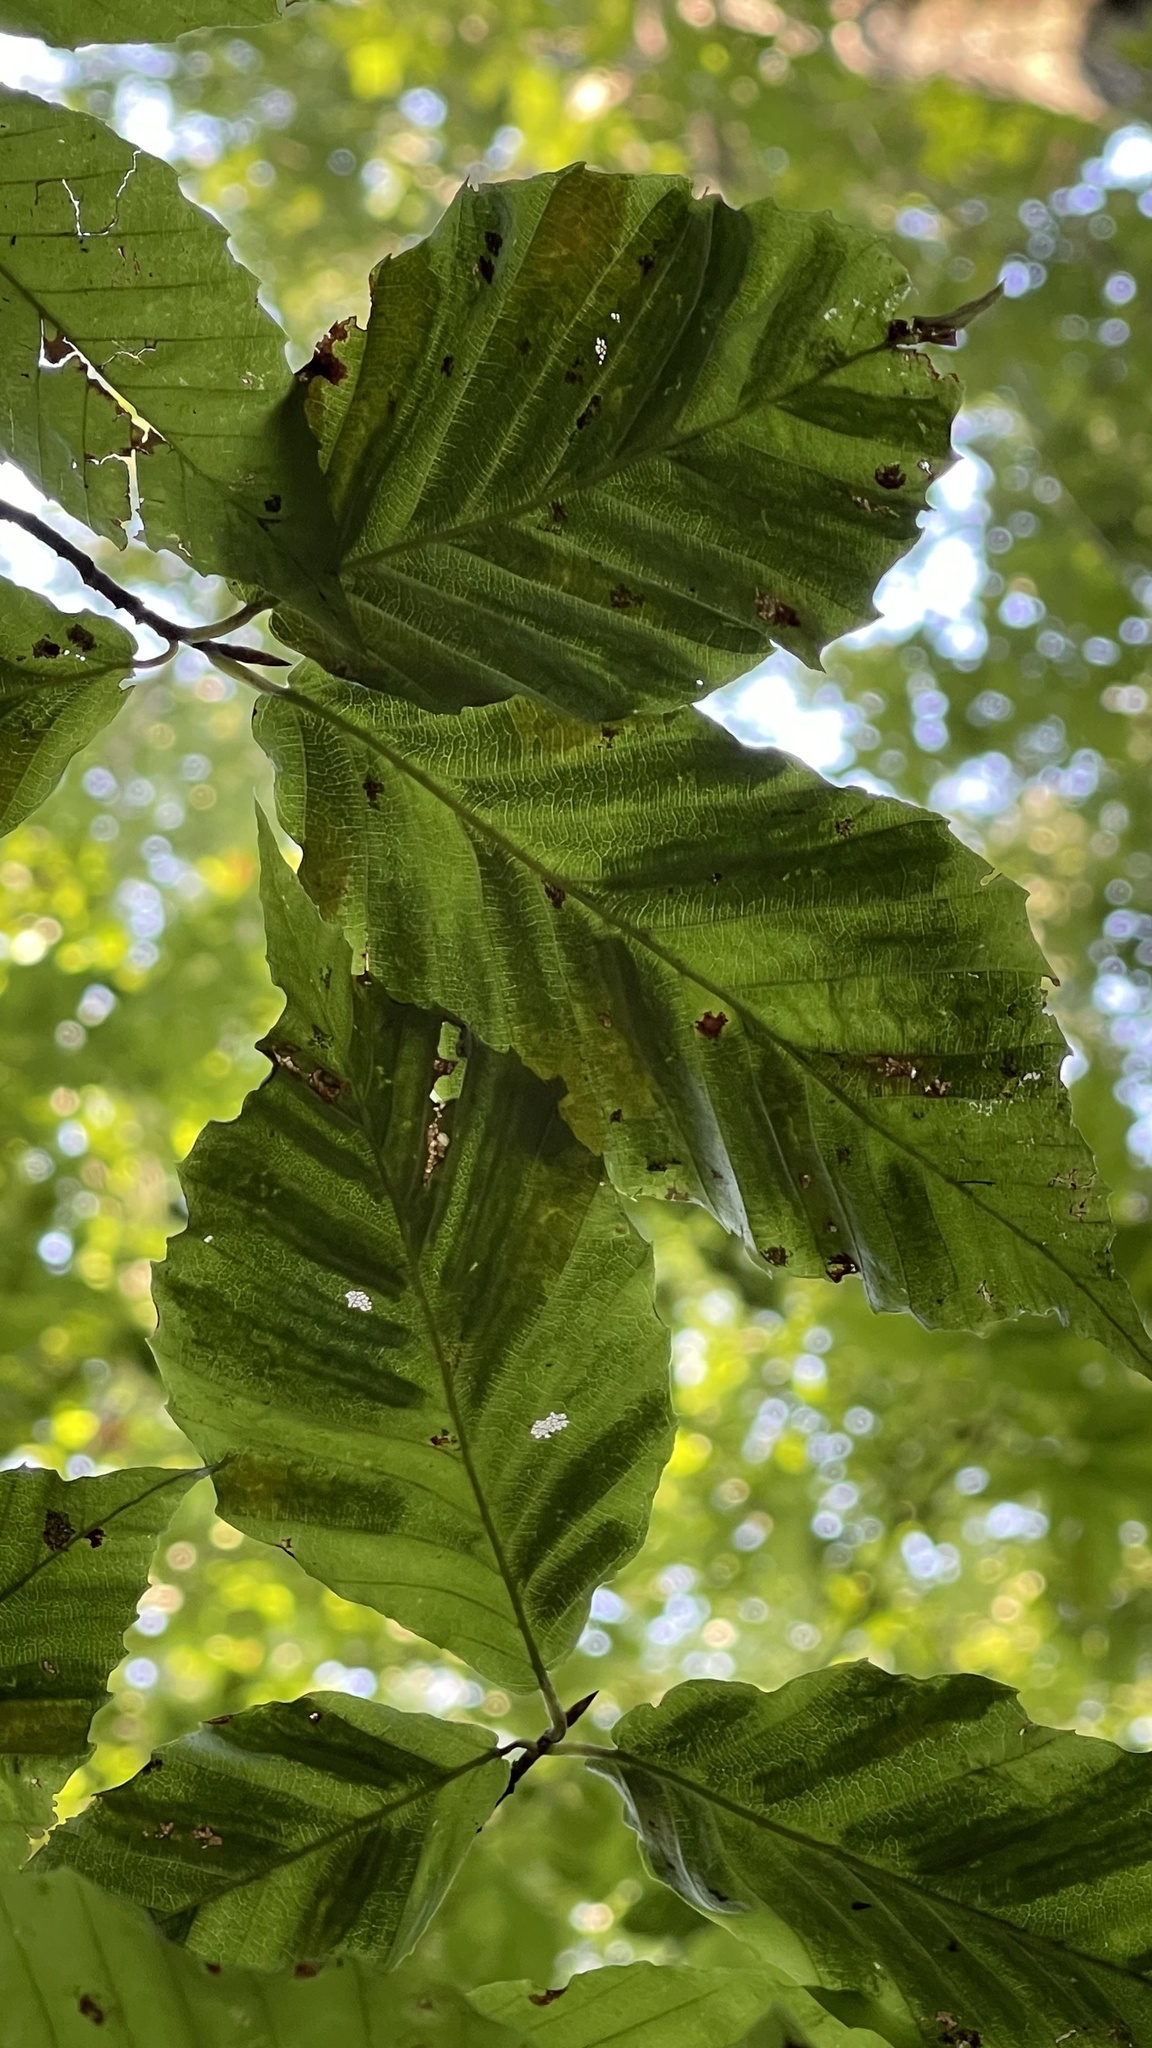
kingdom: Animalia
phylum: Nematoda
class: Chromadorea
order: Rhabditida
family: Anguinidae
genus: Litylenchus
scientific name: Litylenchus crenatae
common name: Beech leaf disease
